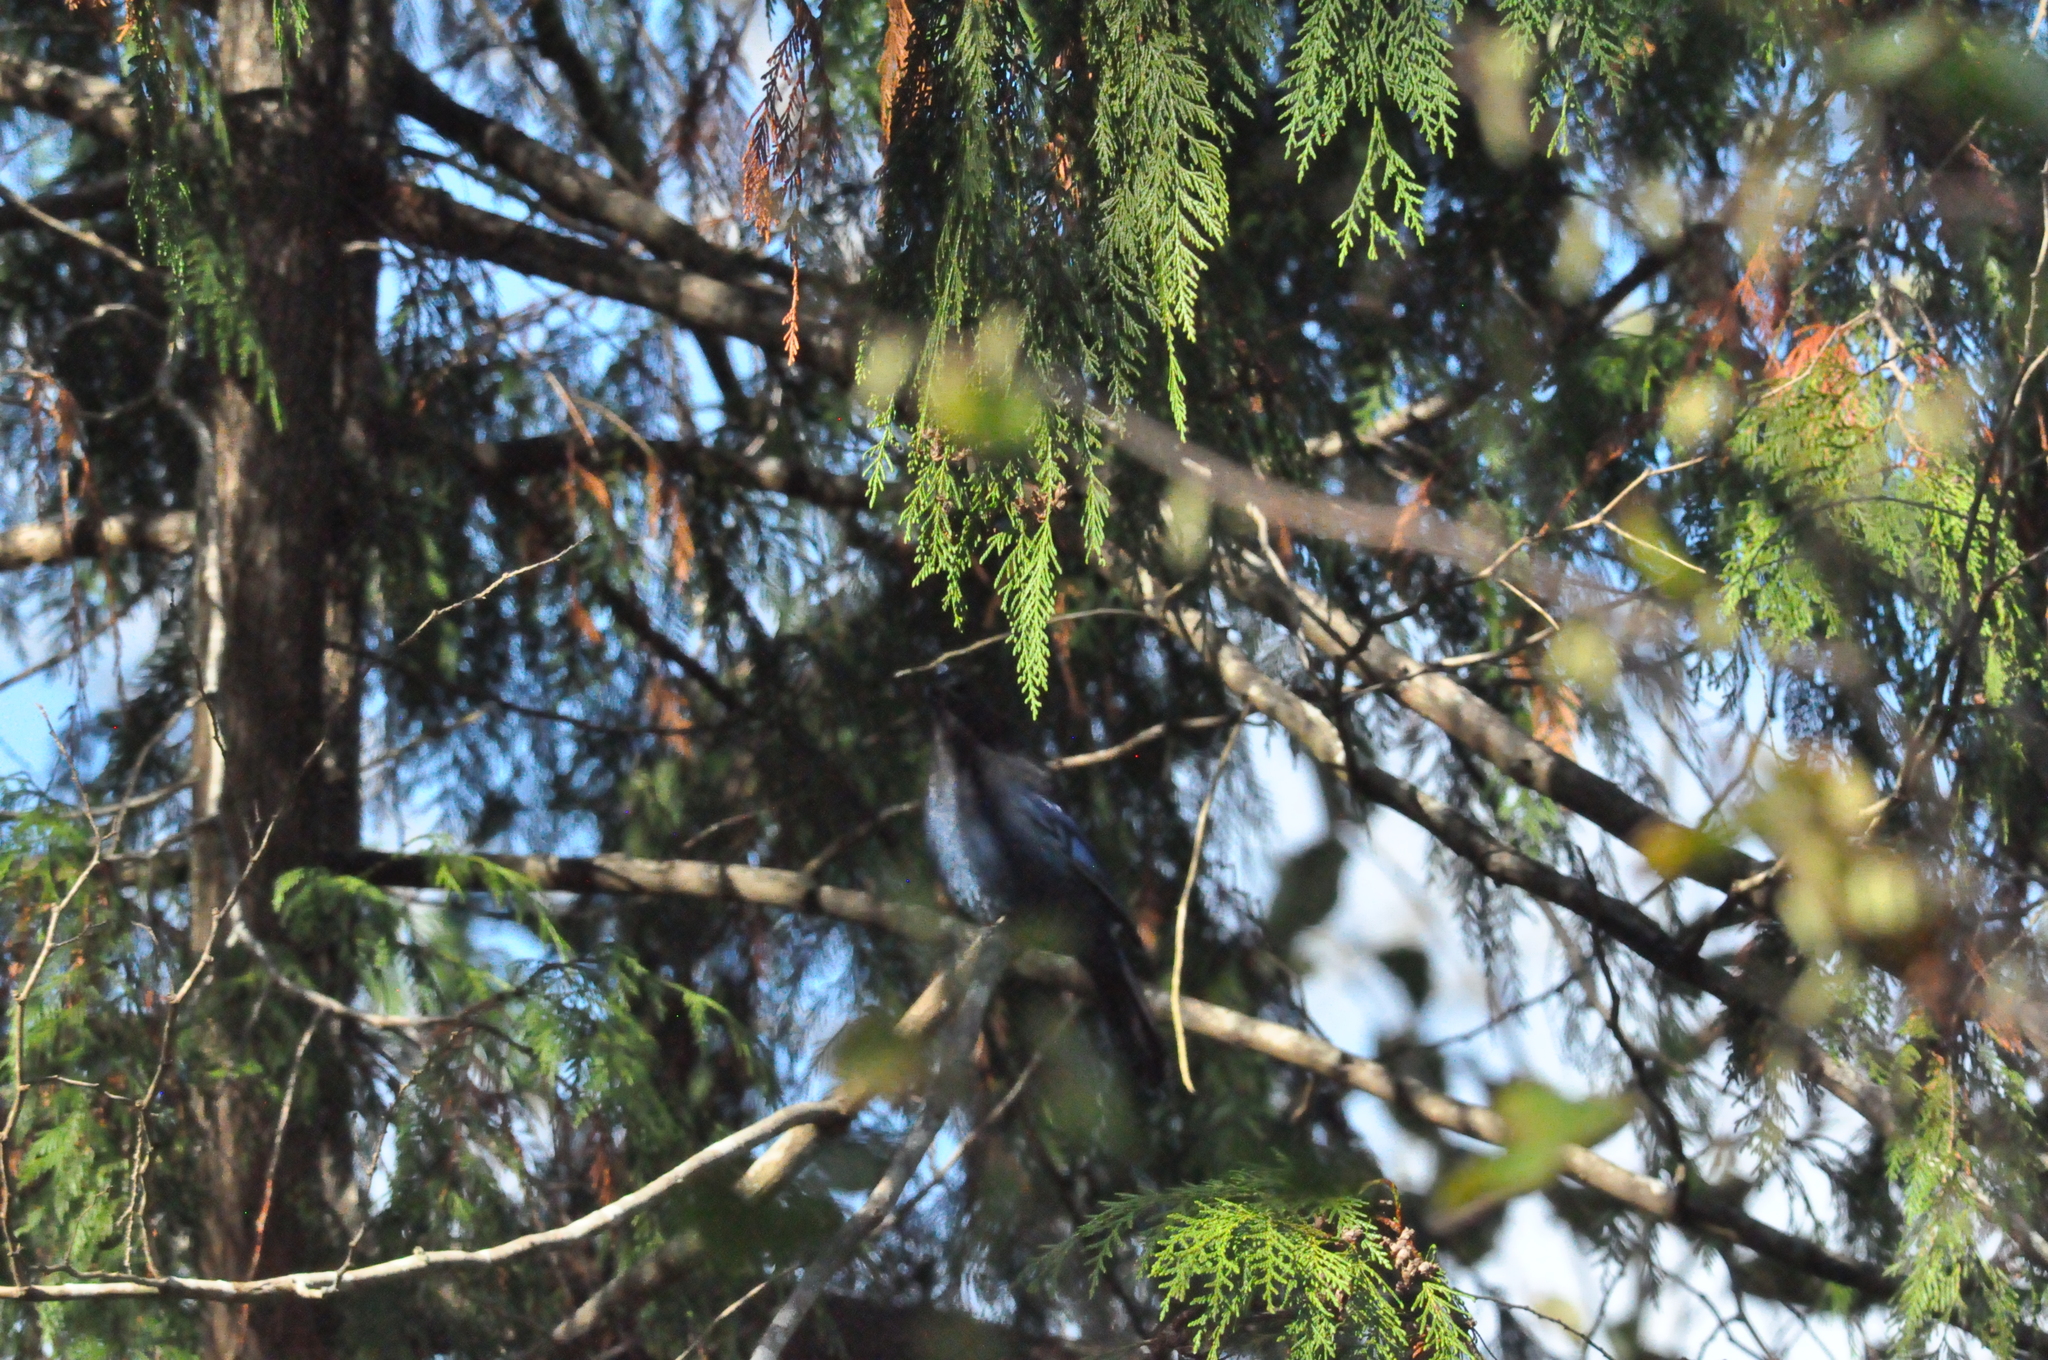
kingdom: Animalia
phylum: Chordata
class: Aves
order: Passeriformes
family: Corvidae
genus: Cyanocitta
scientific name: Cyanocitta stelleri
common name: Steller's jay
